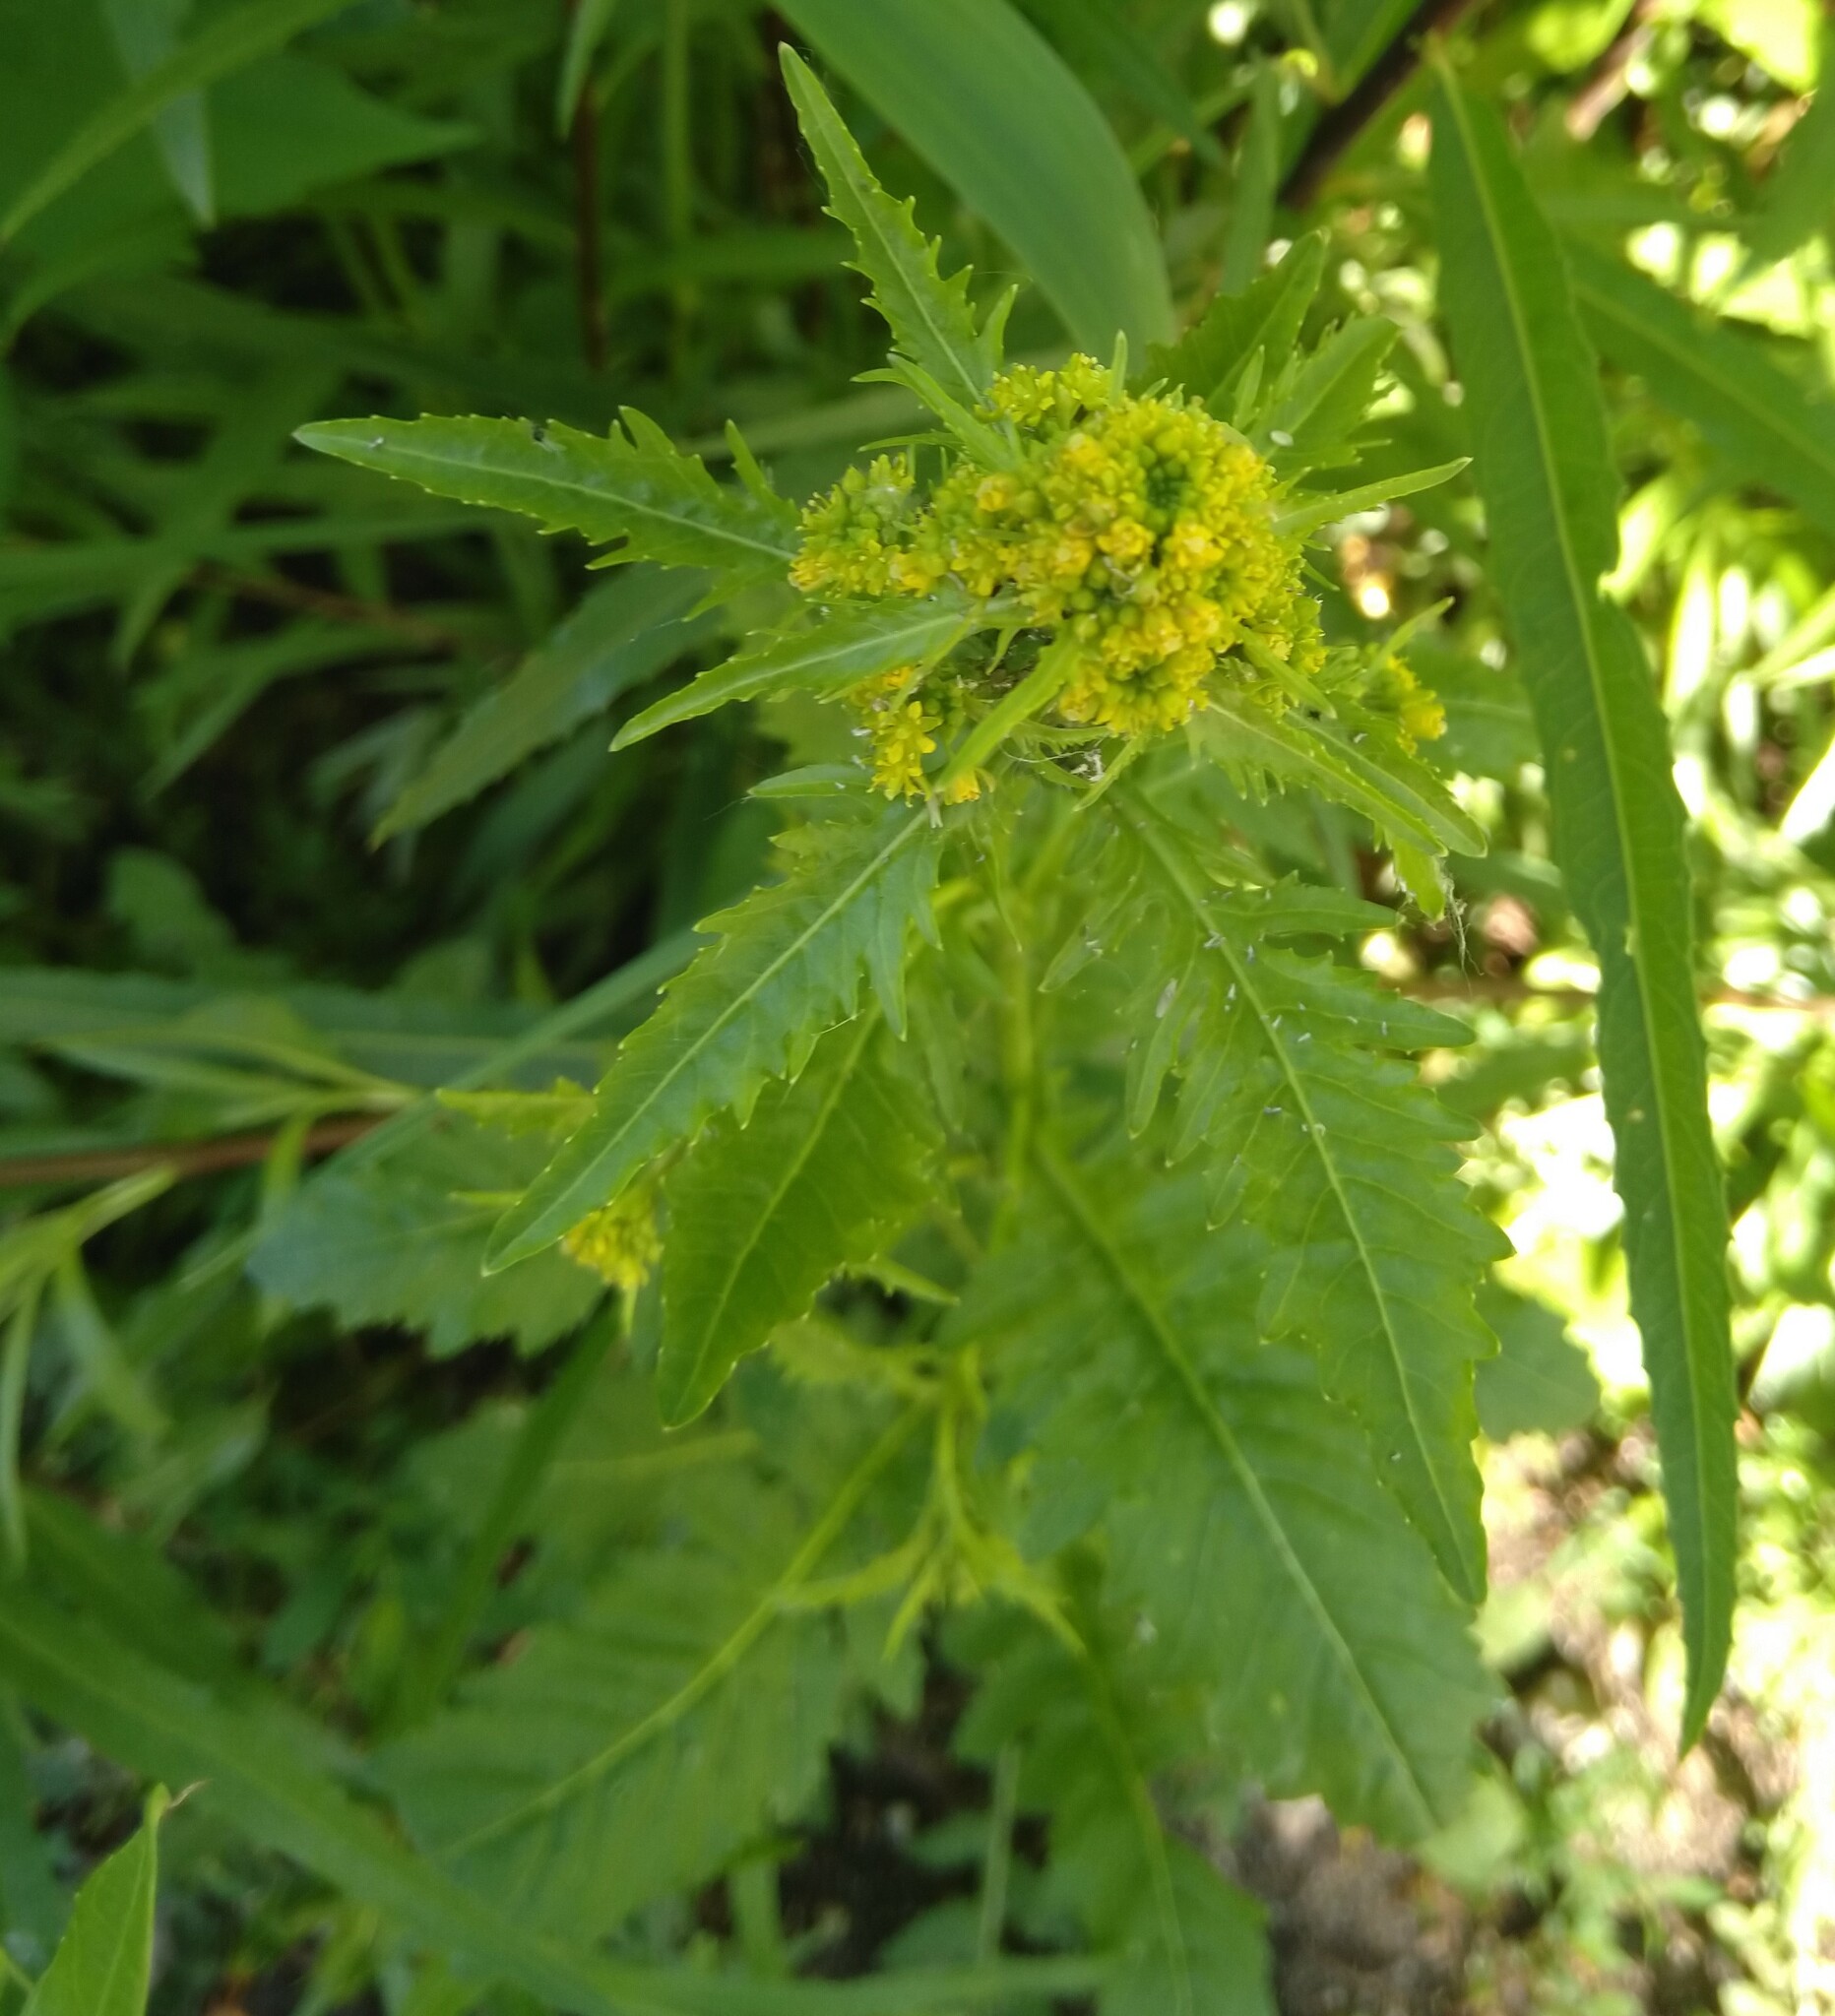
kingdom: Plantae
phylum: Tracheophyta
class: Magnoliopsida
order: Brassicales
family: Brassicaceae
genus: Rorippa
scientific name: Rorippa palustris
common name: Marsh yellow-cress
